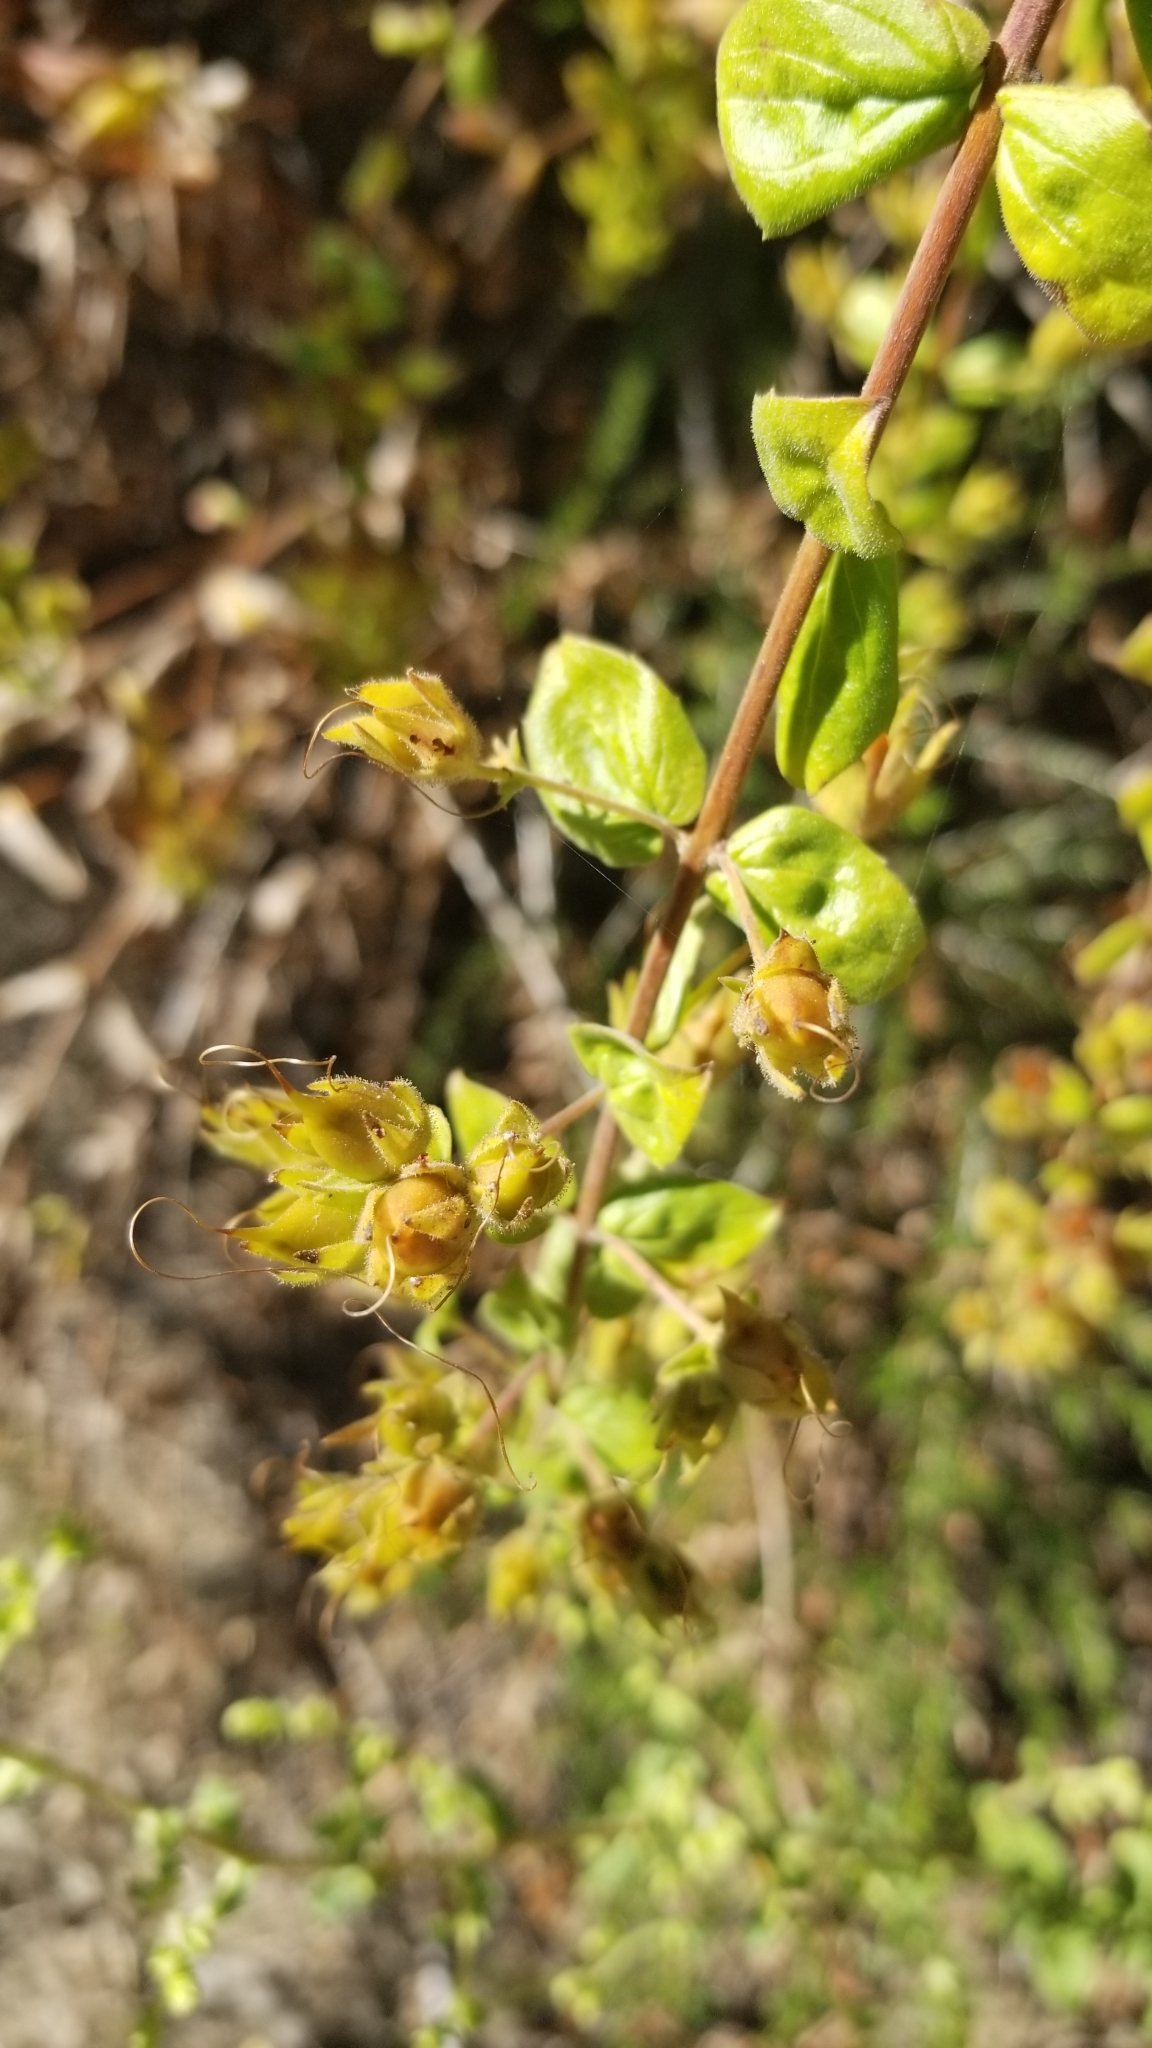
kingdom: Plantae
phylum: Tracheophyta
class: Magnoliopsida
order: Lamiales
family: Plantaginaceae
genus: Keckiella
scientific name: Keckiella cordifolia
